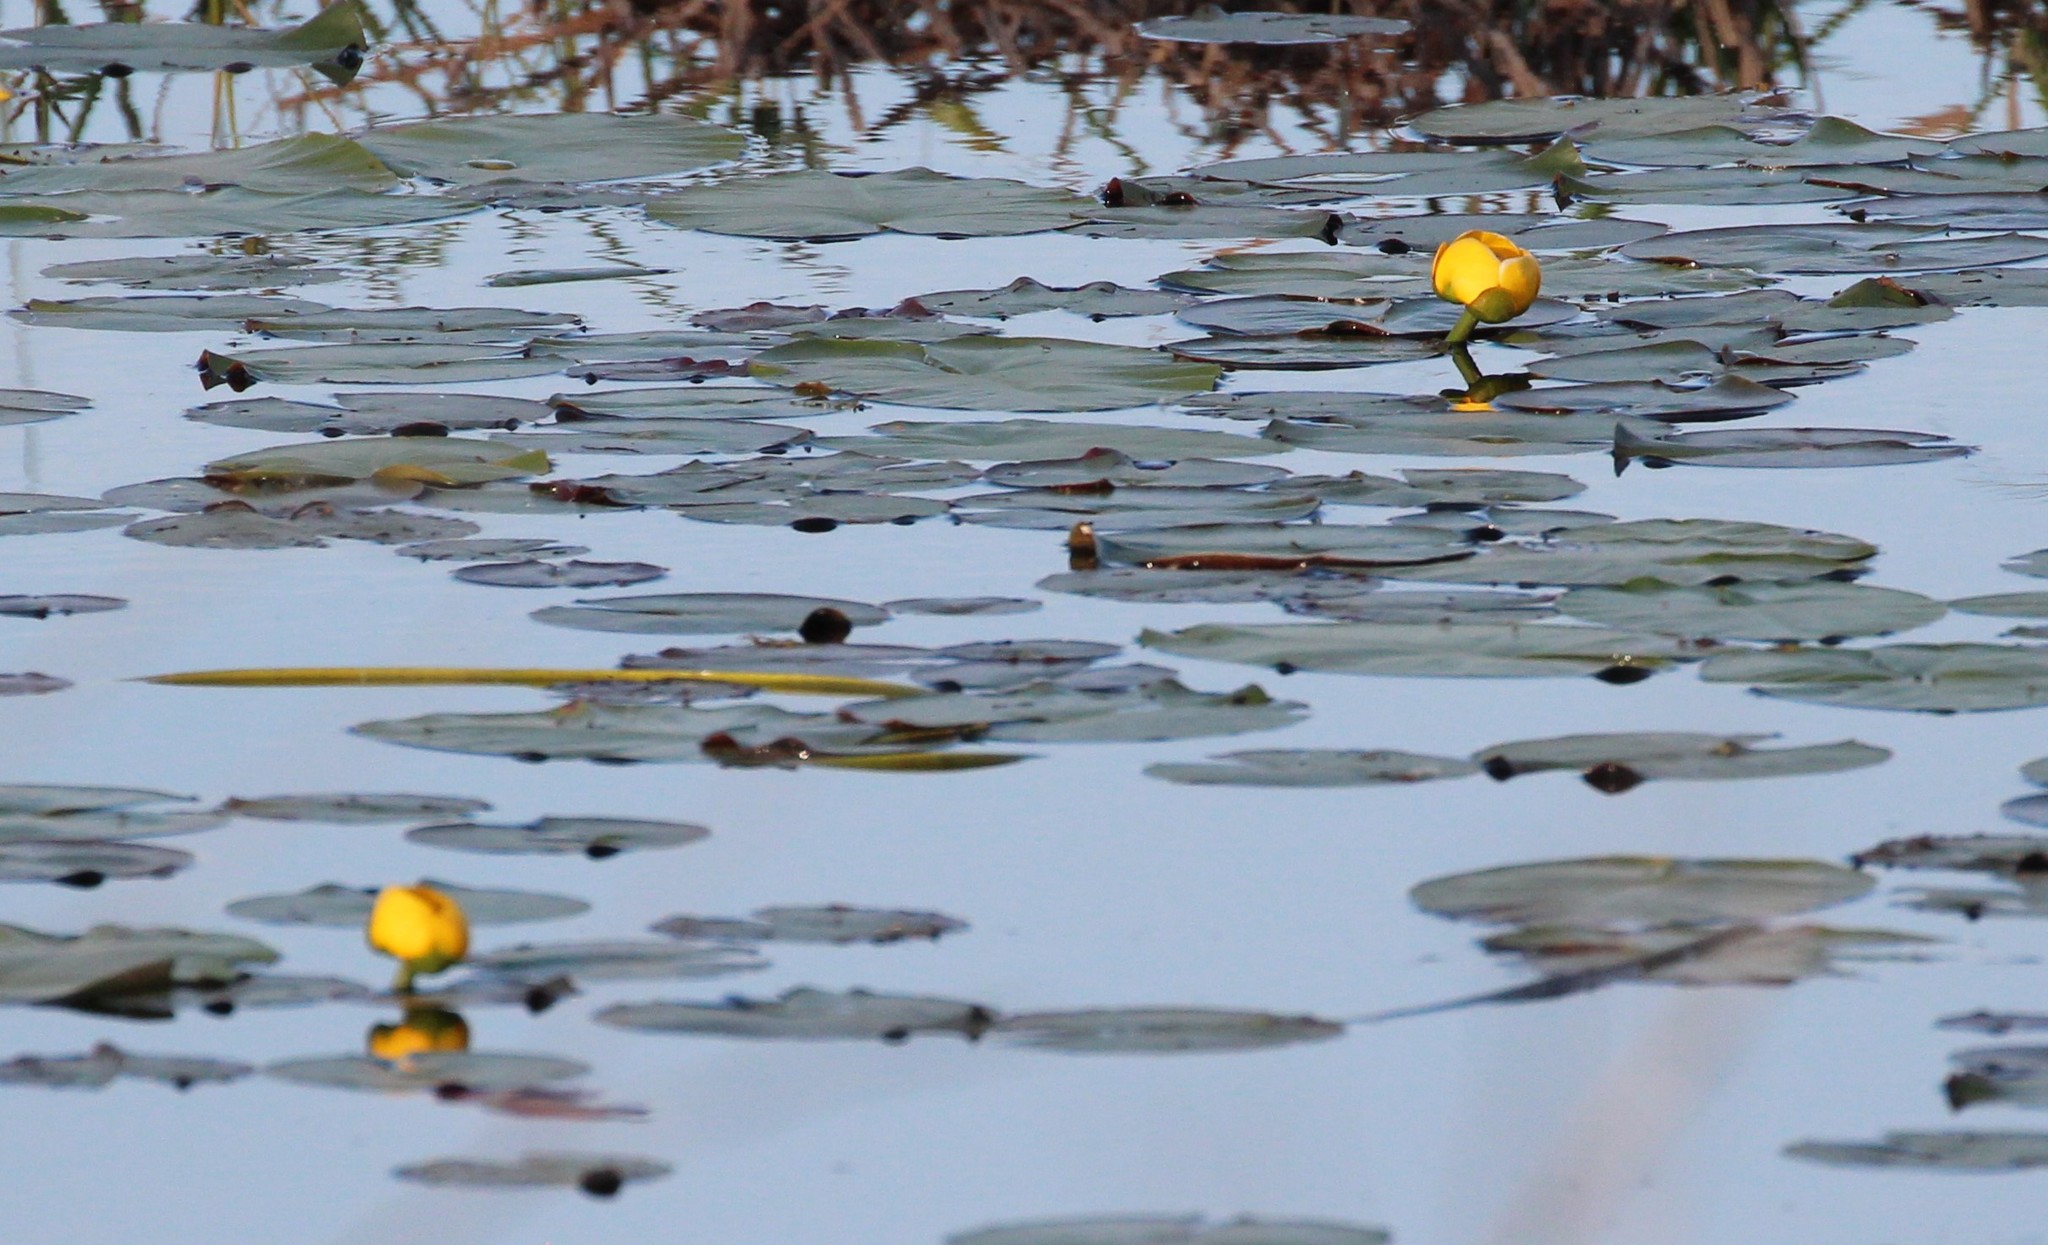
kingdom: Plantae
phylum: Tracheophyta
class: Magnoliopsida
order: Nymphaeales
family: Nymphaeaceae
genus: Nuphar
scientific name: Nuphar variegata
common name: Beaver-root
